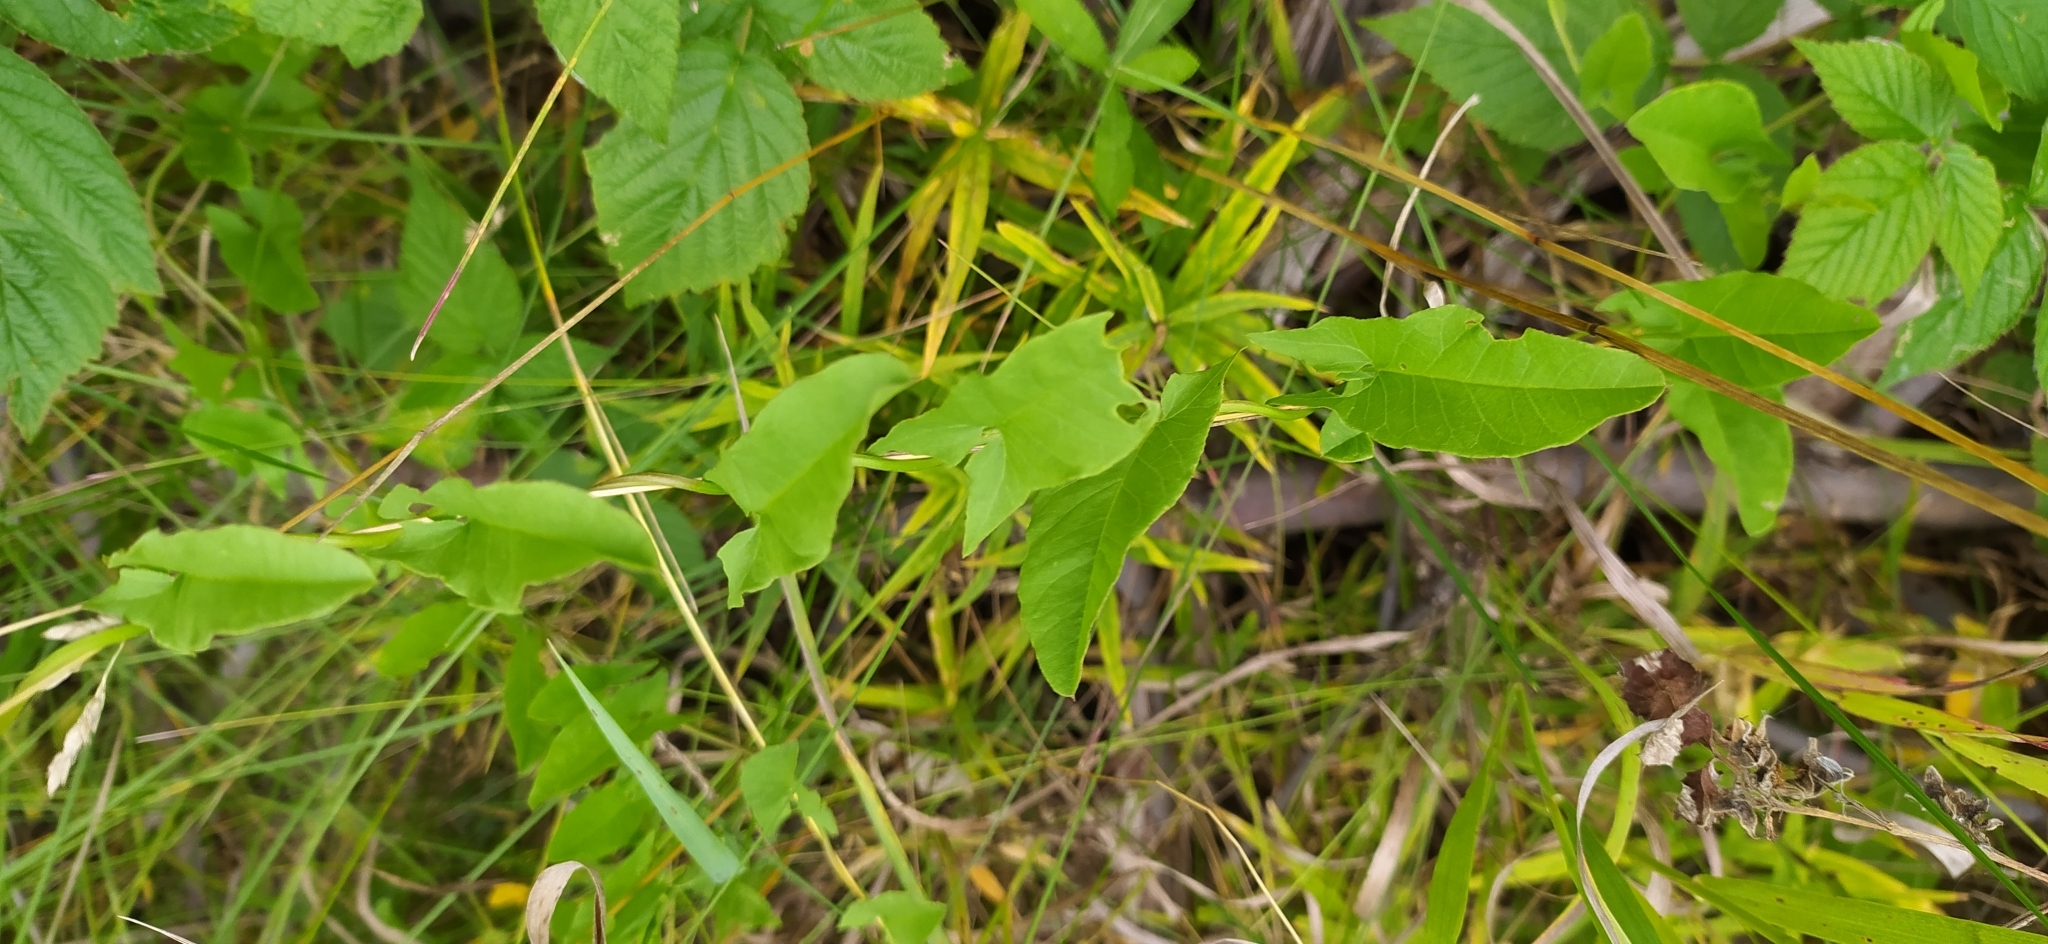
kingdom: Plantae
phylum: Tracheophyta
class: Magnoliopsida
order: Solanales
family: Convolvulaceae
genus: Convolvulus
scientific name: Convolvulus arvensis
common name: Field bindweed
